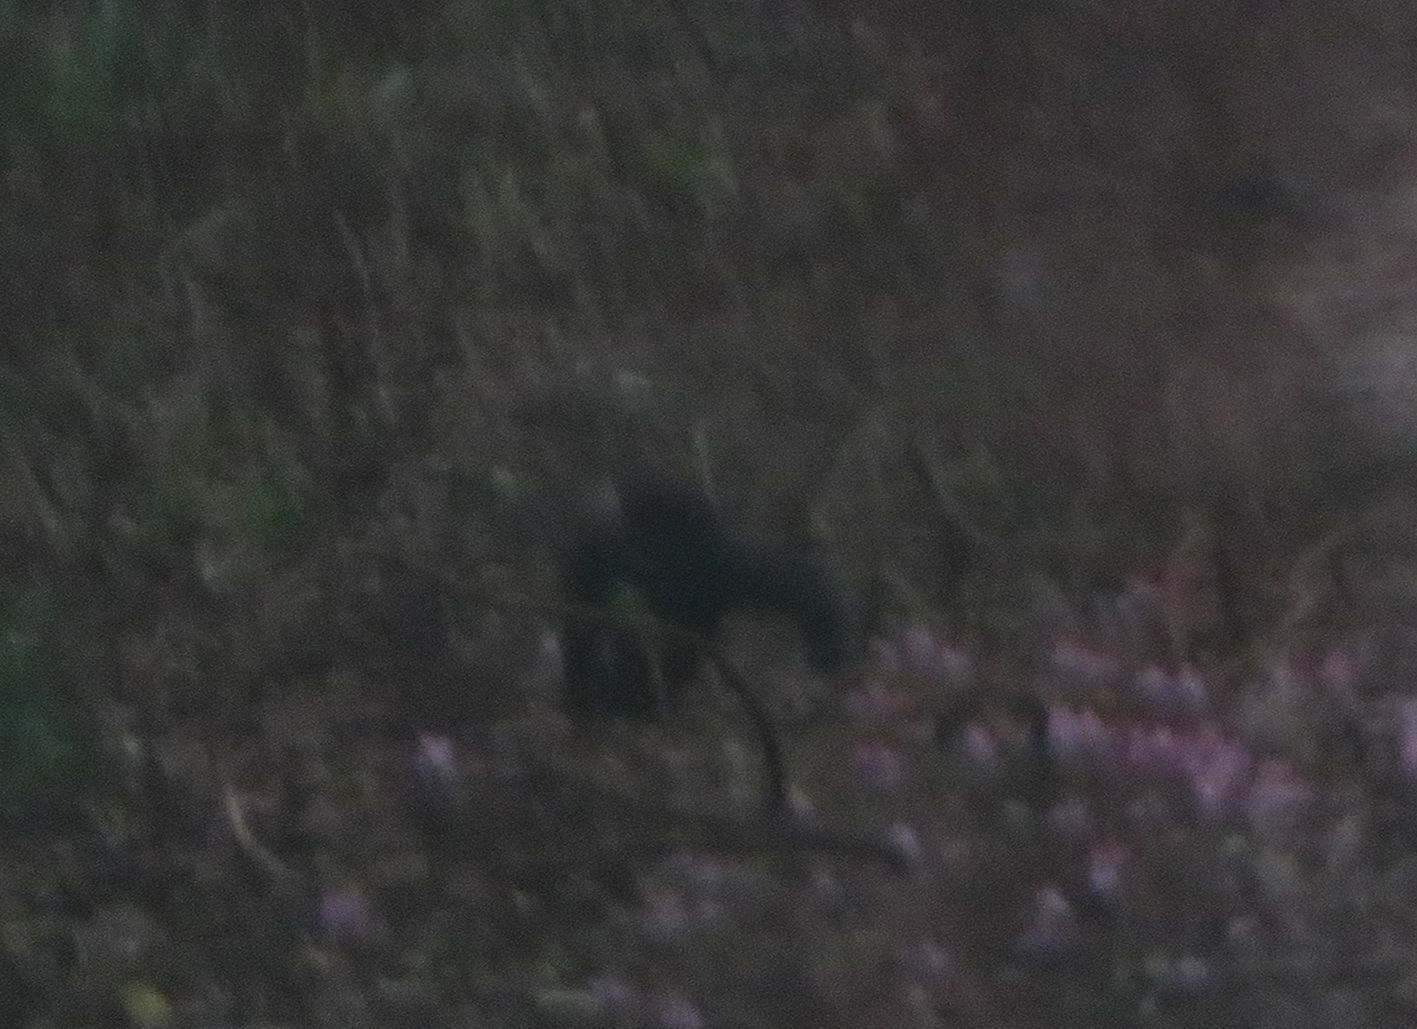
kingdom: Animalia
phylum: Chordata
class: Mammalia
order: Carnivora
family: Mustelidae
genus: Eira
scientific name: Eira barbara
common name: Tayra
